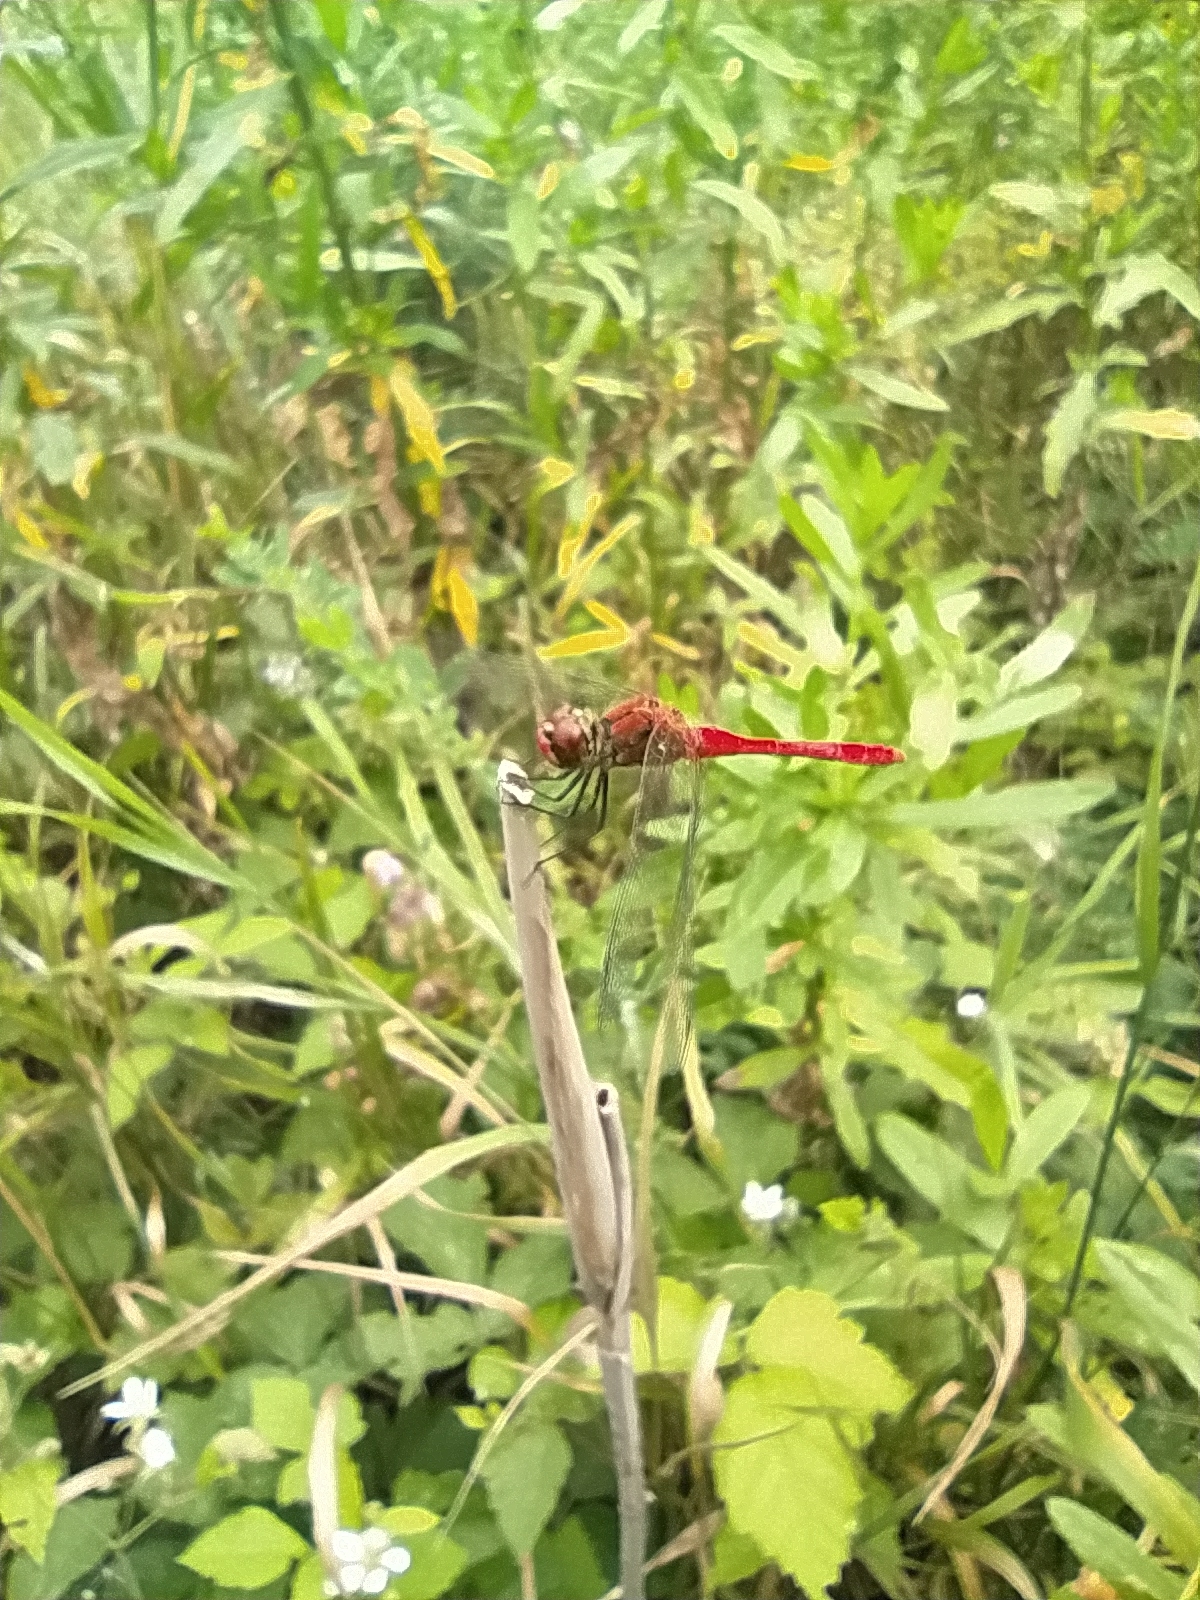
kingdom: Animalia
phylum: Arthropoda
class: Insecta
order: Odonata
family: Libellulidae
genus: Sympetrum
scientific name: Sympetrum sanguineum
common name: Ruddy darter
